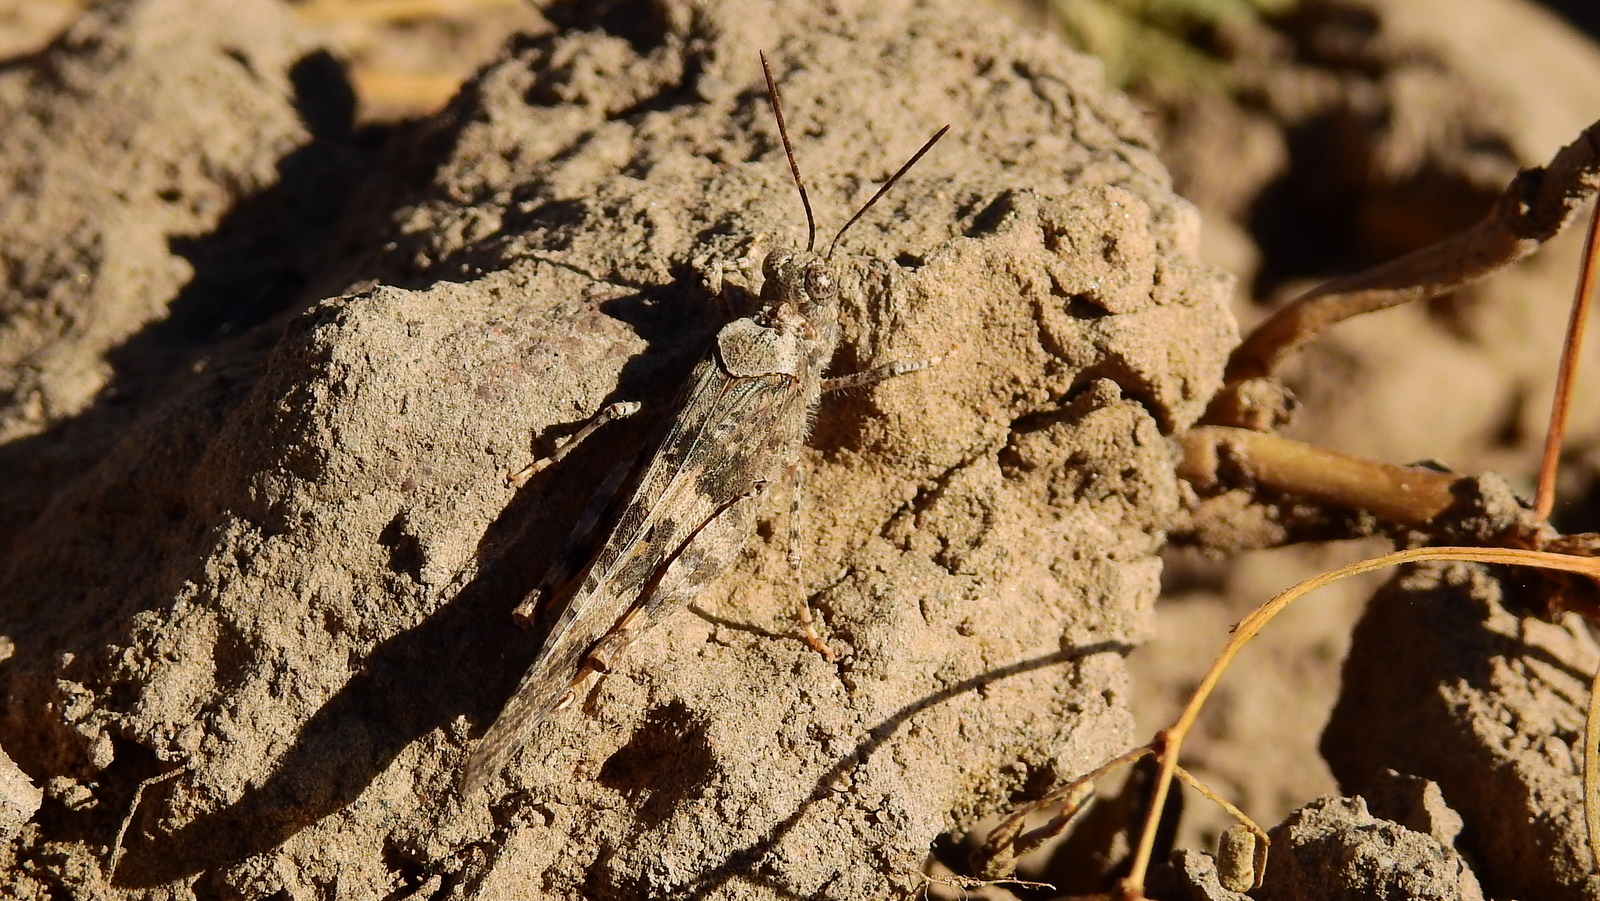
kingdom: Animalia
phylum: Arthropoda
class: Insecta
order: Orthoptera
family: Acrididae
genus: Trimerotropis
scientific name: Trimerotropis pallidipennis
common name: Pallid-winged grasshopper
